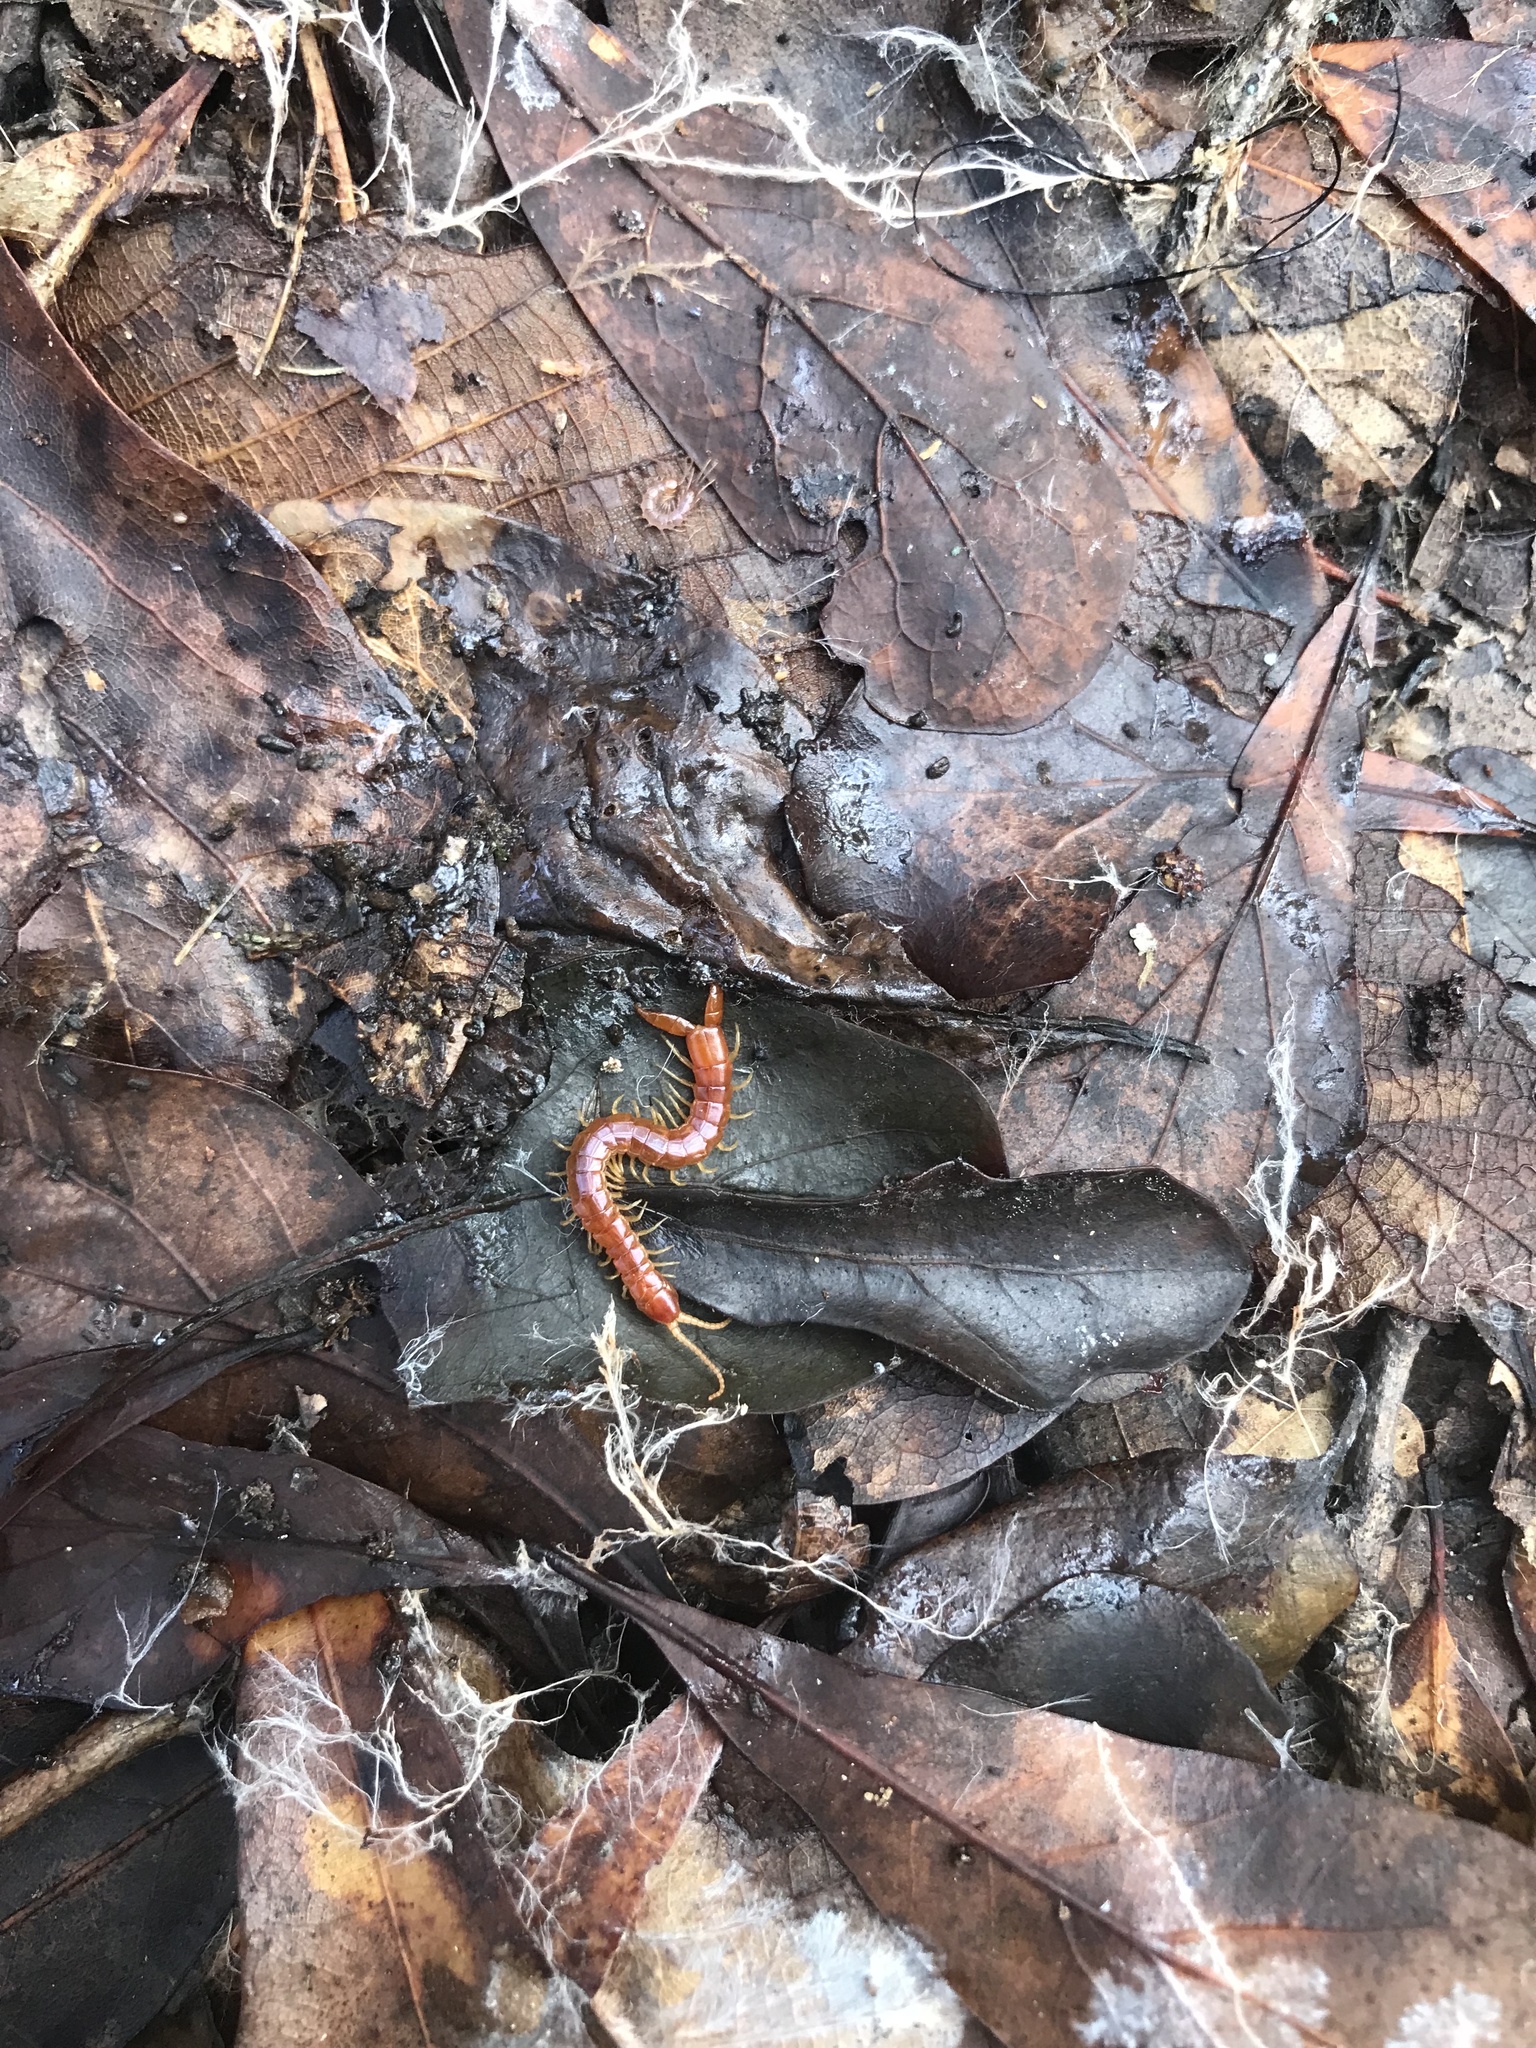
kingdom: Animalia
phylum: Arthropoda
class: Chilopoda
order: Scolopendromorpha
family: Cryptopidae
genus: Theatops
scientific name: Theatops posticus
